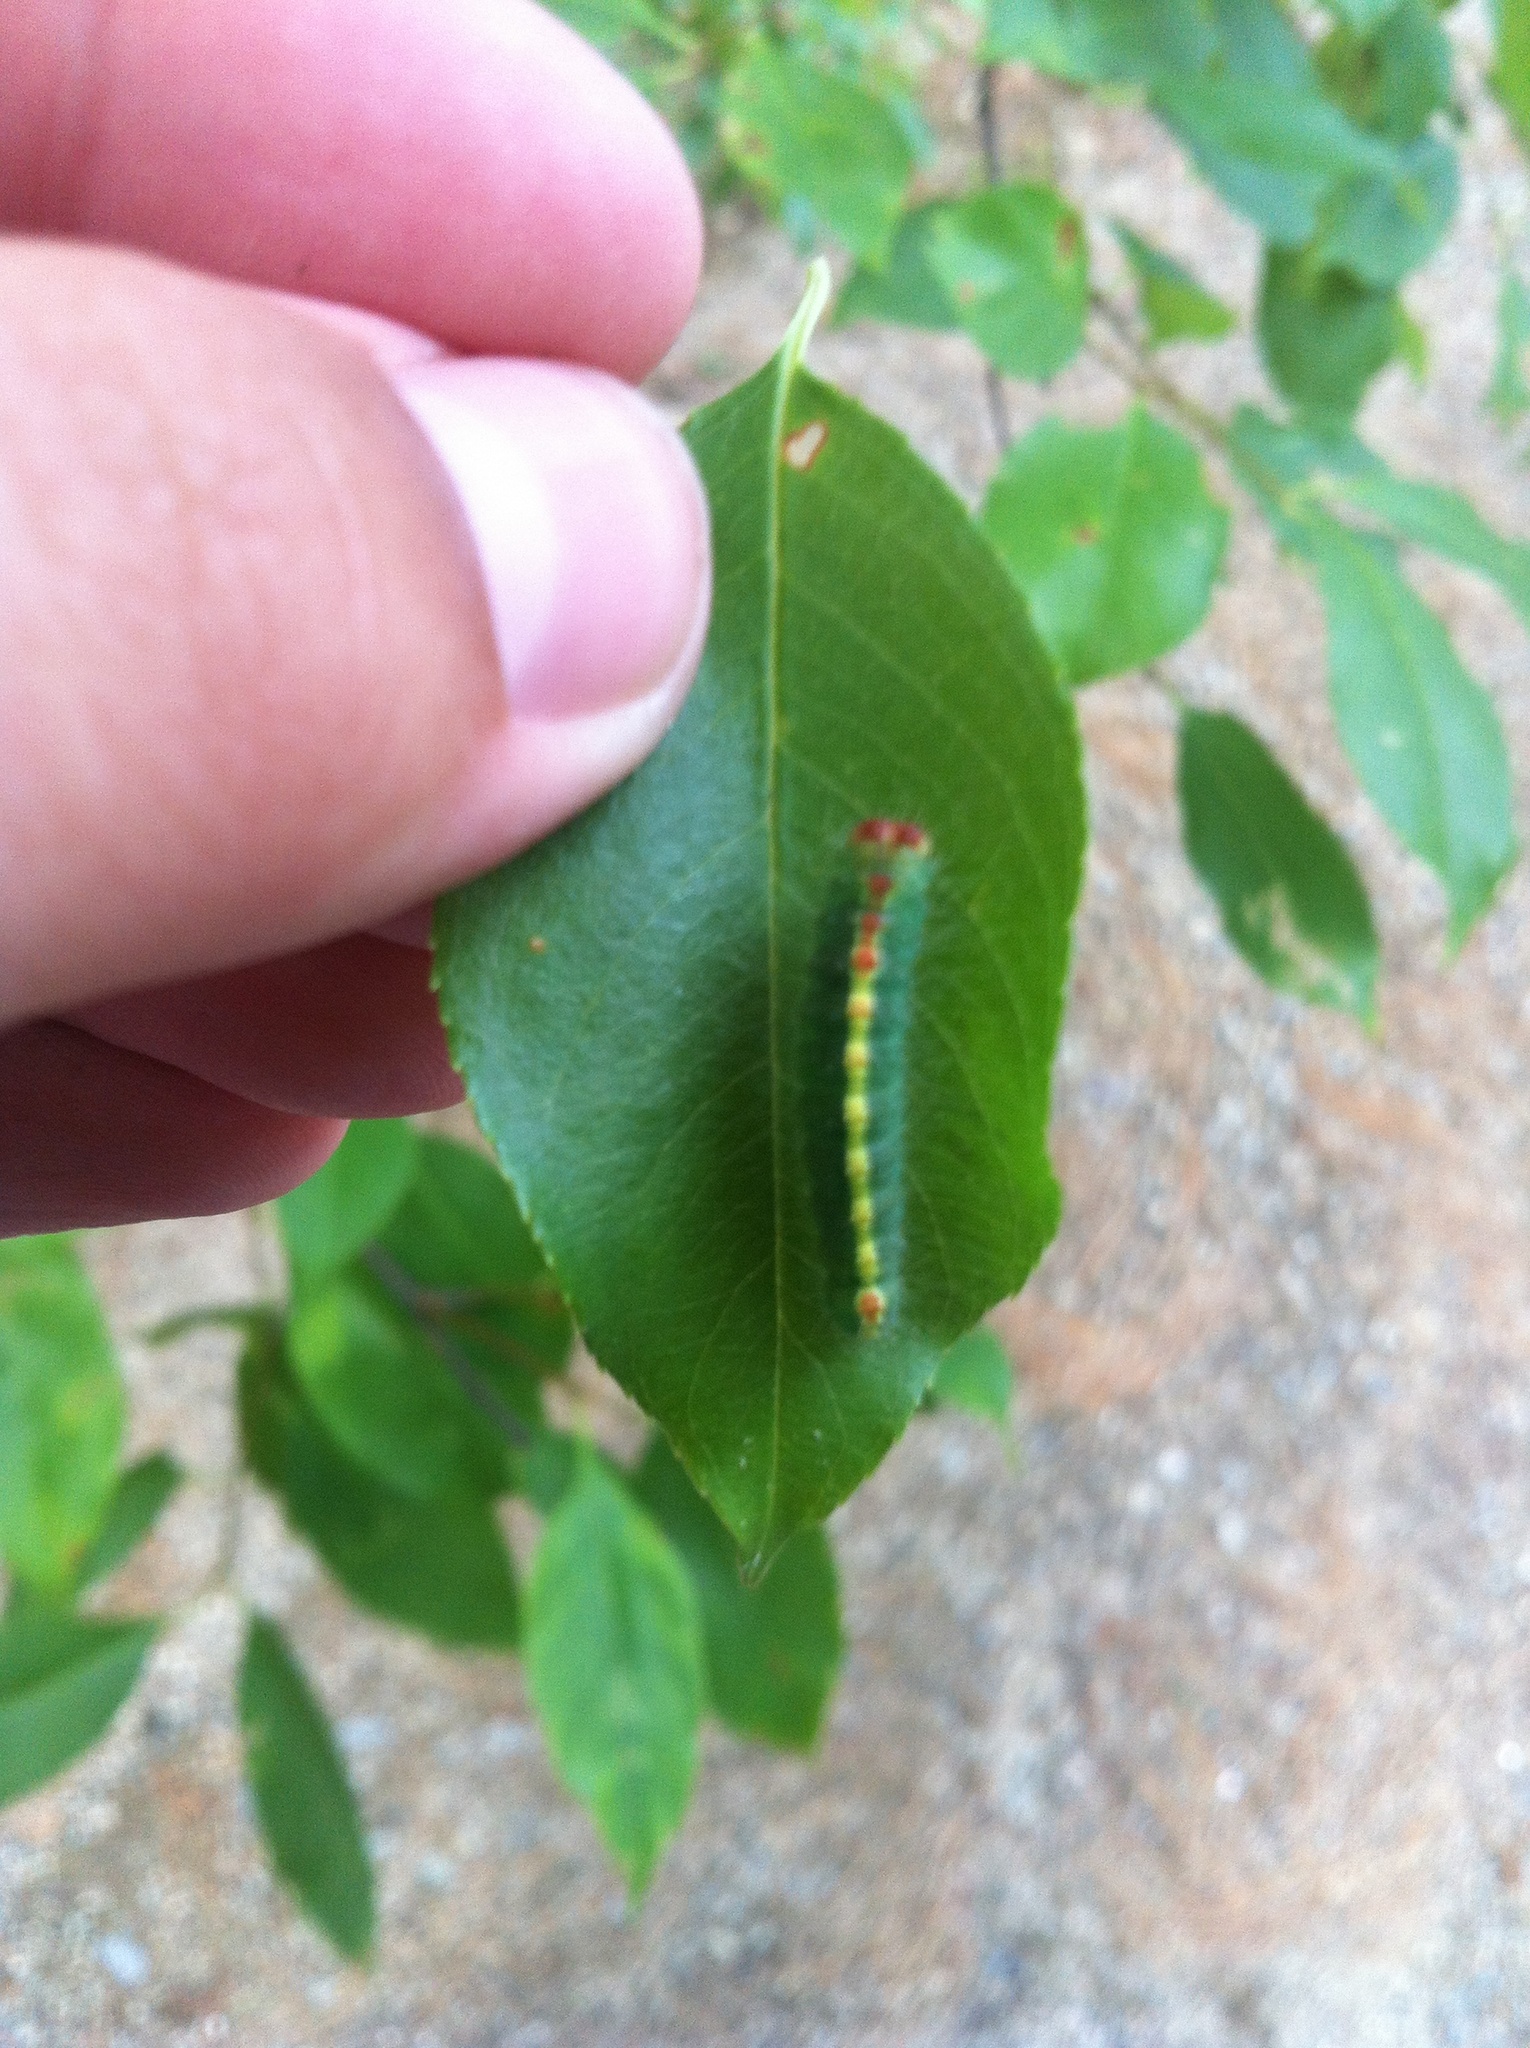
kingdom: Animalia
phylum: Arthropoda
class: Insecta
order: Lepidoptera
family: Noctuidae
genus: Acronicta
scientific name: Acronicta hasta
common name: Cherry dagger
